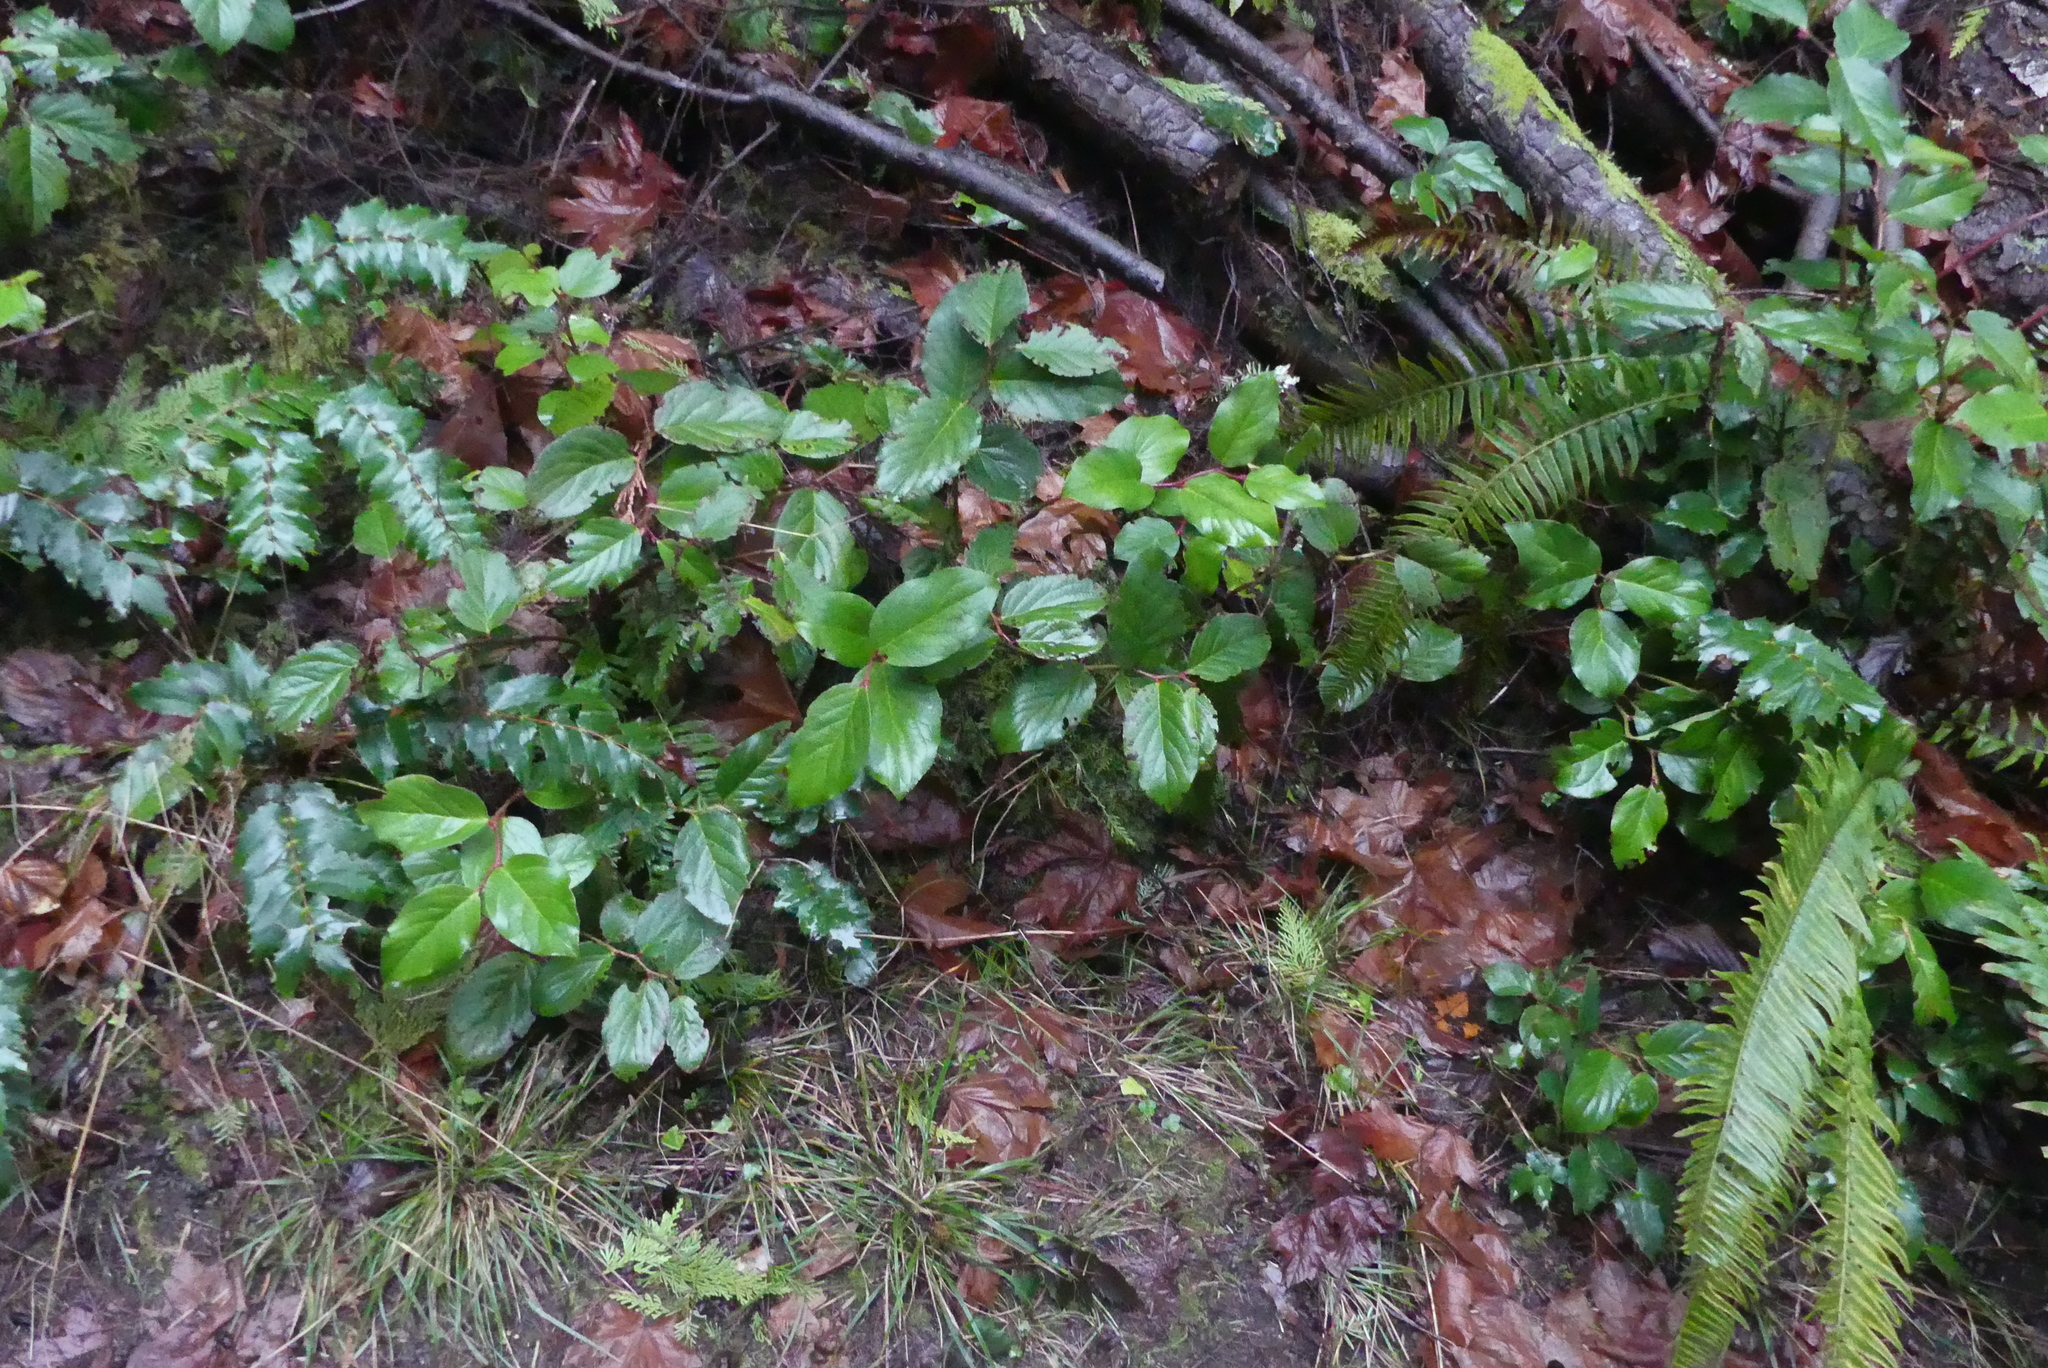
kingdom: Plantae
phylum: Tracheophyta
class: Magnoliopsida
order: Ericales
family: Ericaceae
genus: Gaultheria
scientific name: Gaultheria shallon
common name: Shallon
